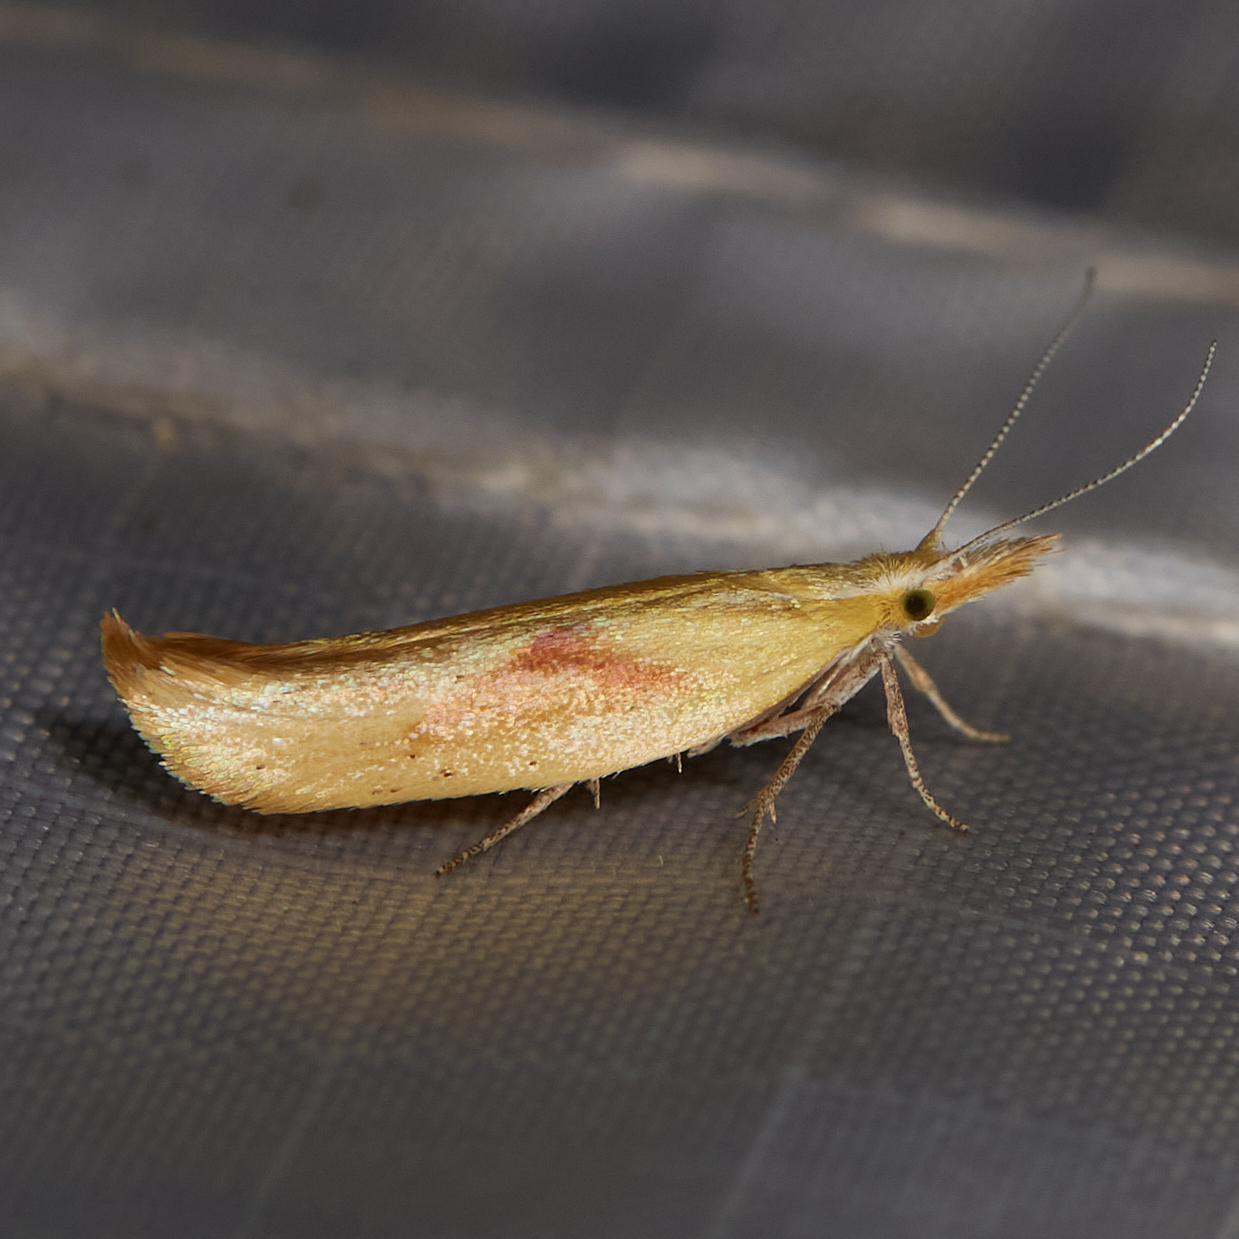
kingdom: Animalia
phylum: Arthropoda
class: Insecta
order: Lepidoptera
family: Ypsolophidae
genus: Ypsolopha
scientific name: Ypsolopha canariella
